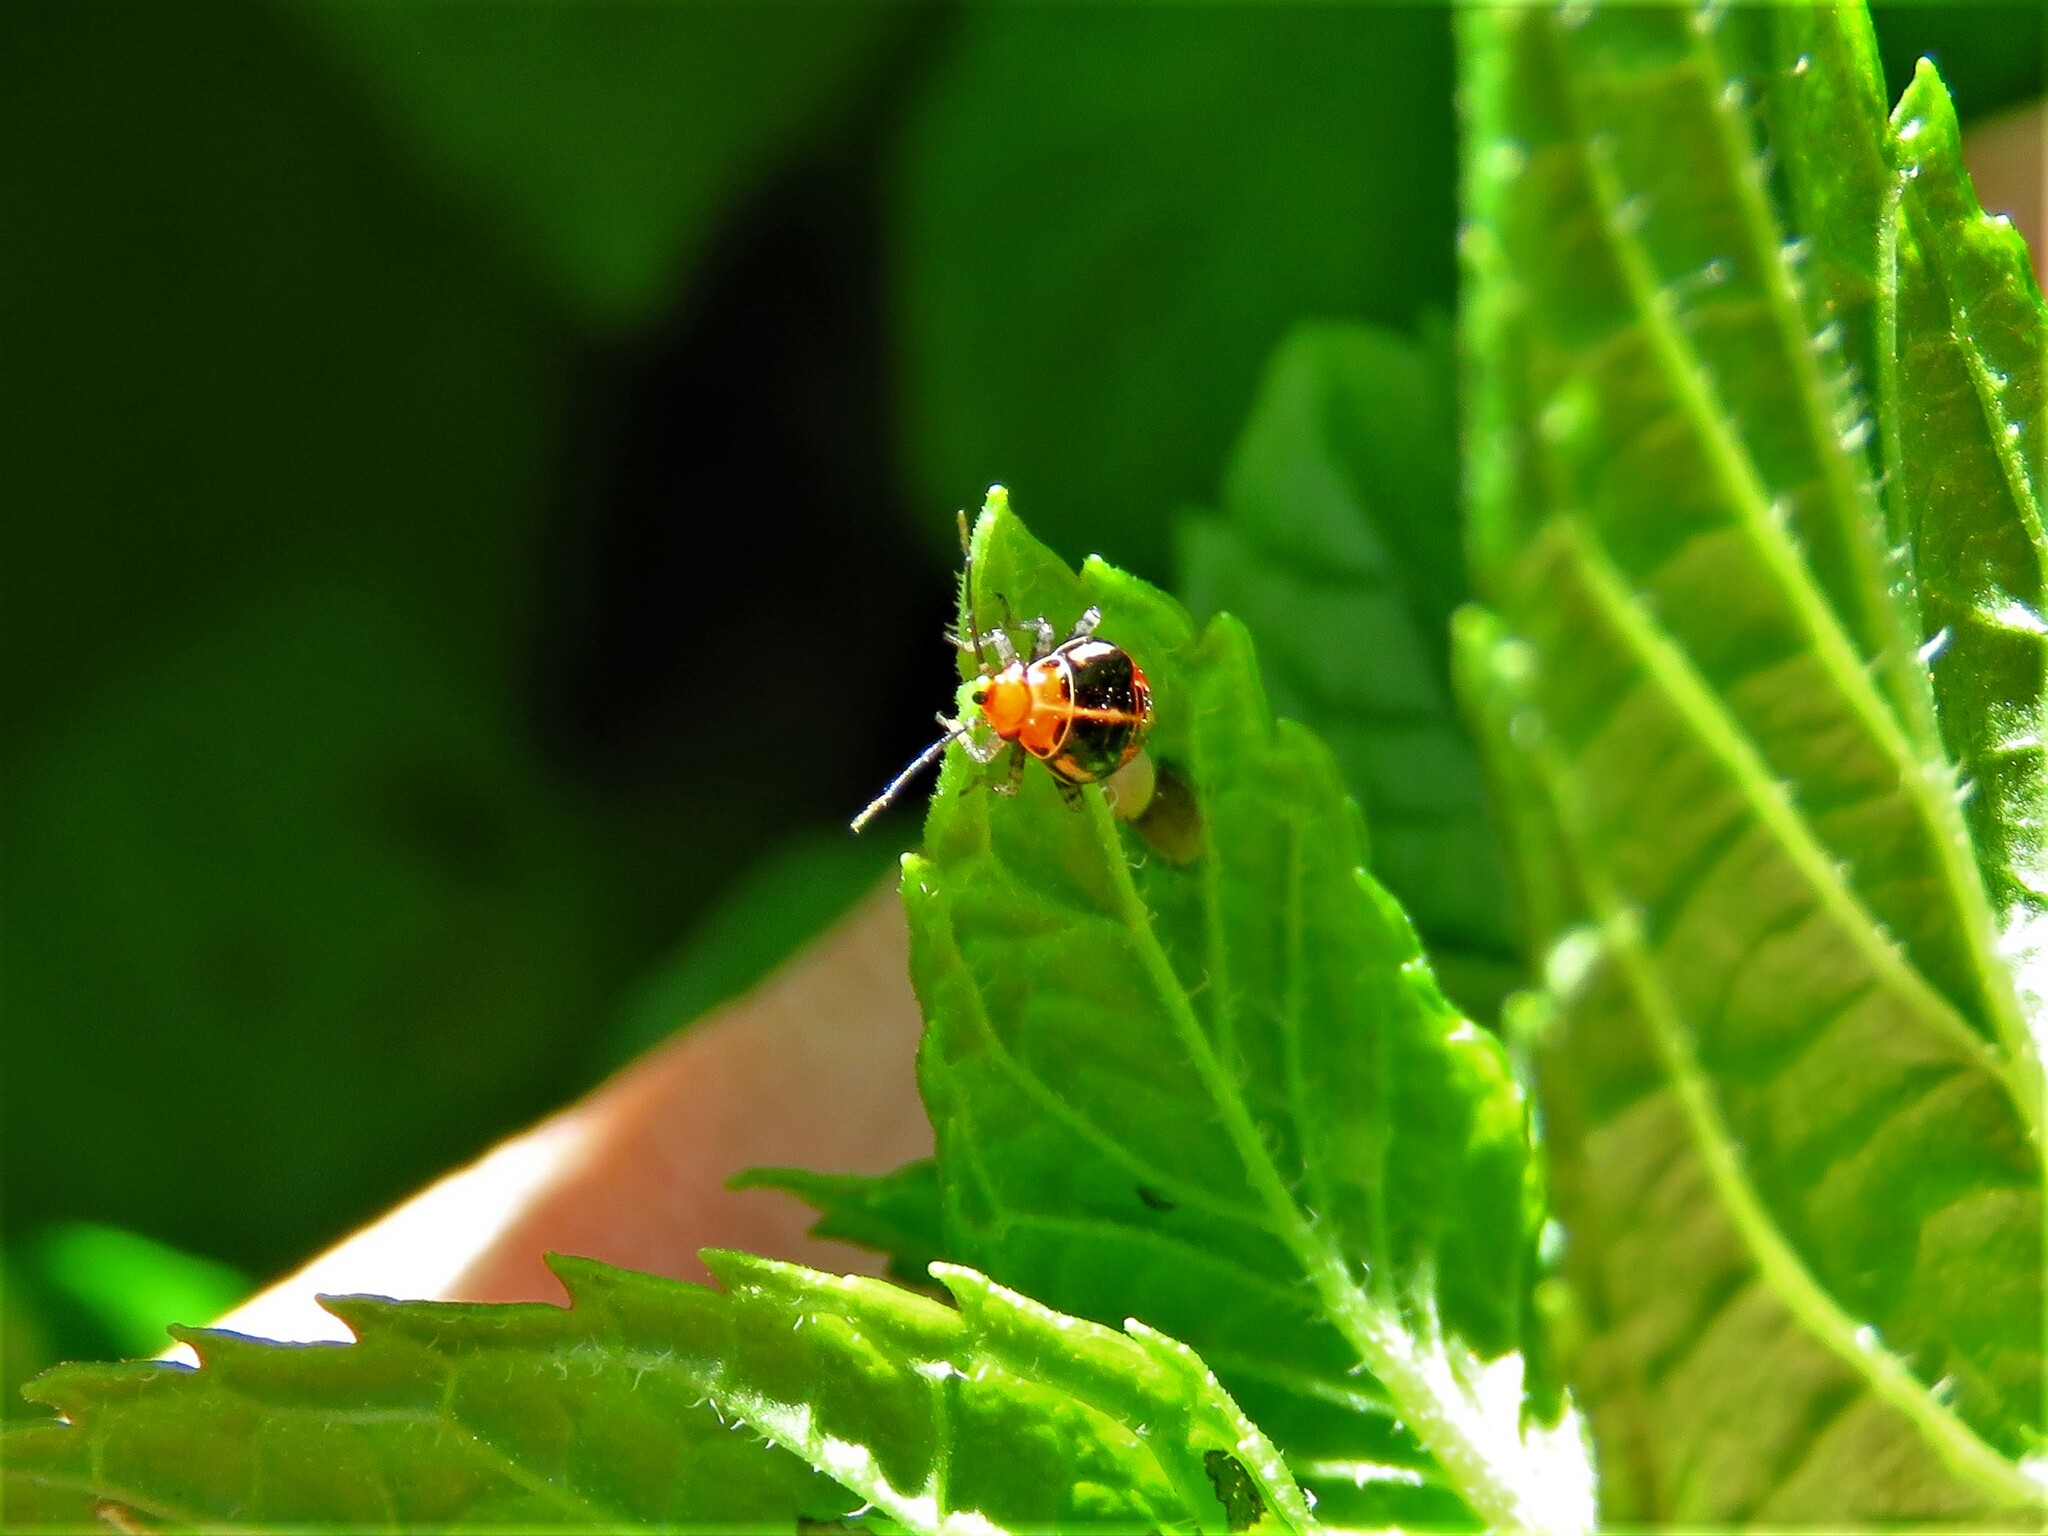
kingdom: Animalia
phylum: Arthropoda
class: Insecta
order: Hemiptera
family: Miridae
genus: Poecilocapsus
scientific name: Poecilocapsus lineatus
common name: Four-lined plant bug
